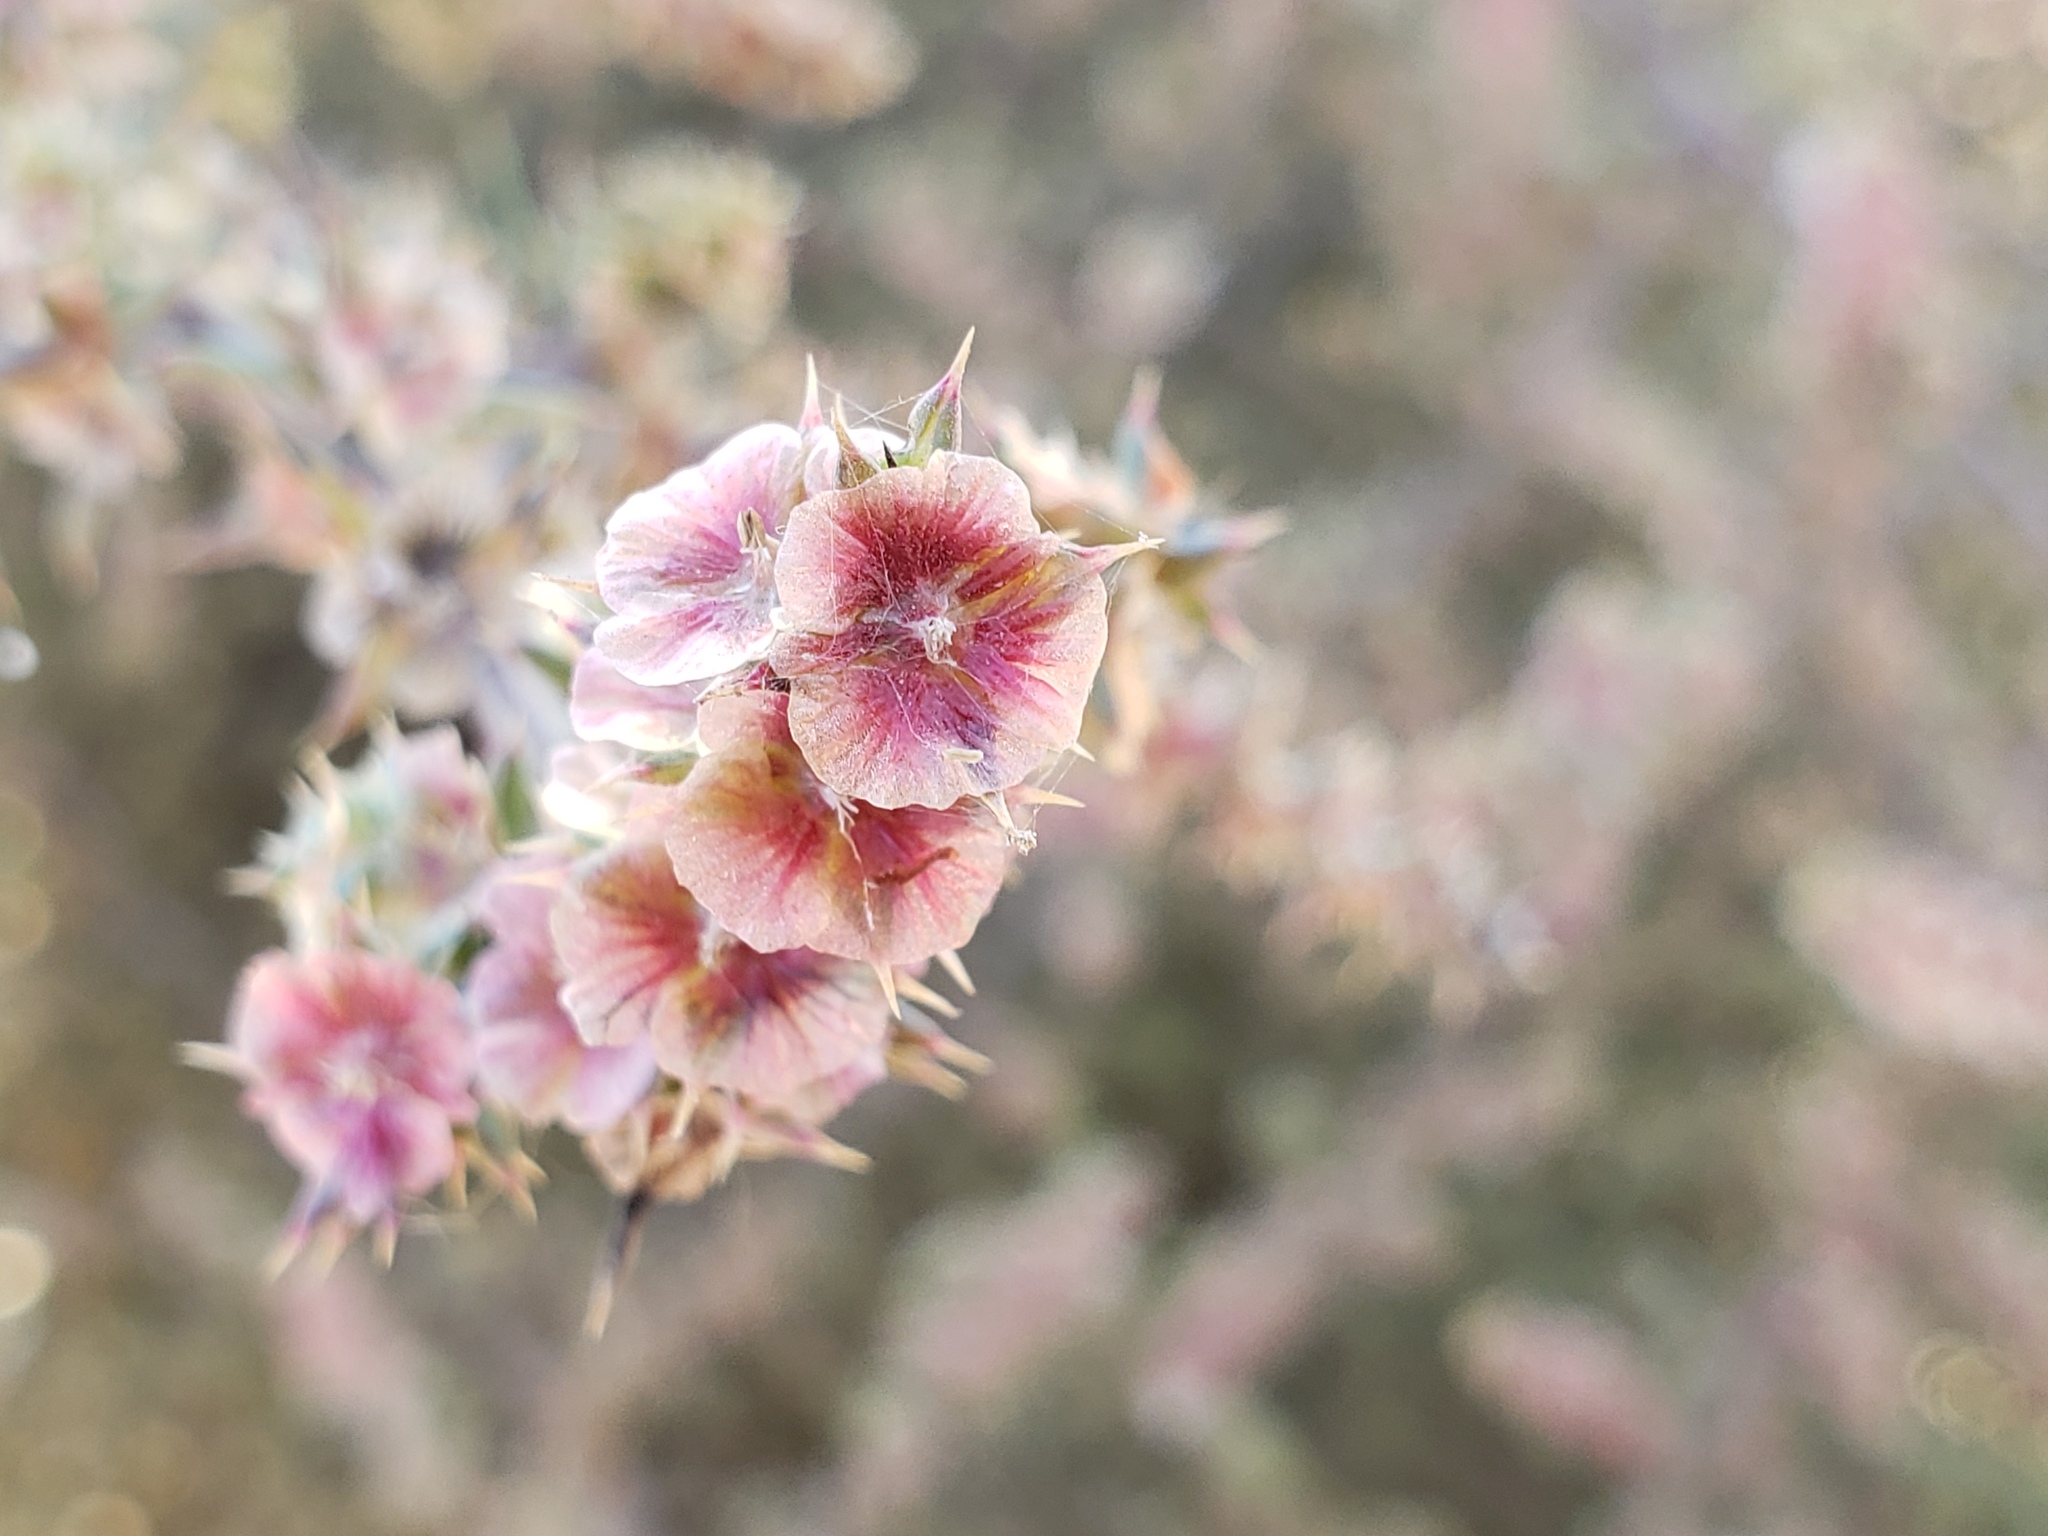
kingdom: Plantae
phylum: Tracheophyta
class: Magnoliopsida
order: Caryophyllales
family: Amaranthaceae
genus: Salsola
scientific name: Salsola tragus
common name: Prickly russian thistle
